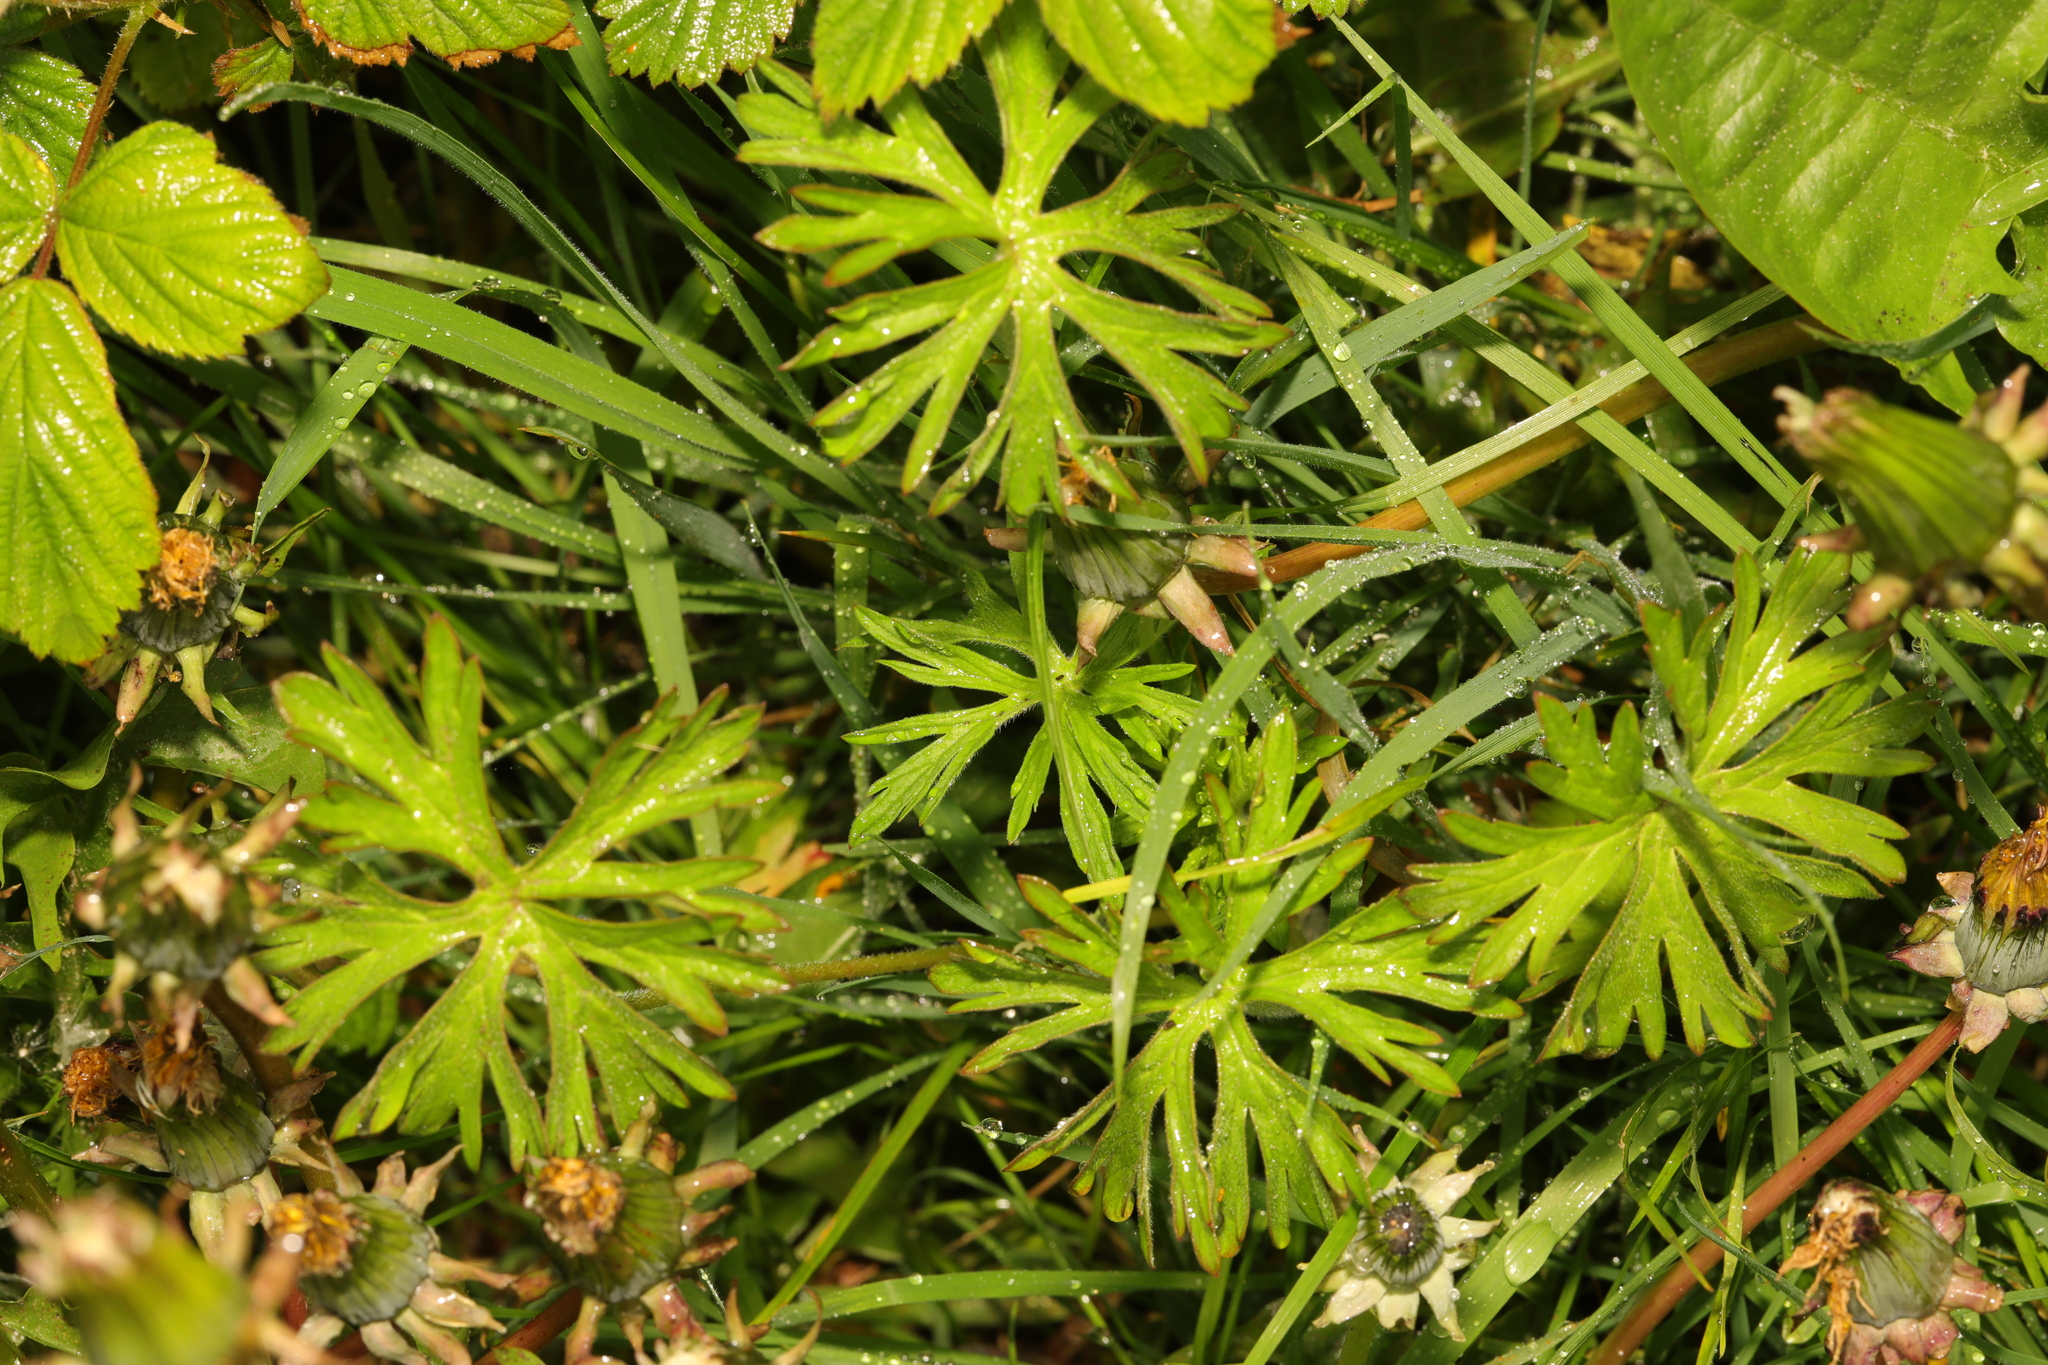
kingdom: Plantae
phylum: Tracheophyta
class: Magnoliopsida
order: Geraniales
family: Geraniaceae
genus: Geranium
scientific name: Geranium dissectum
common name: Cut-leaved crane's-bill
